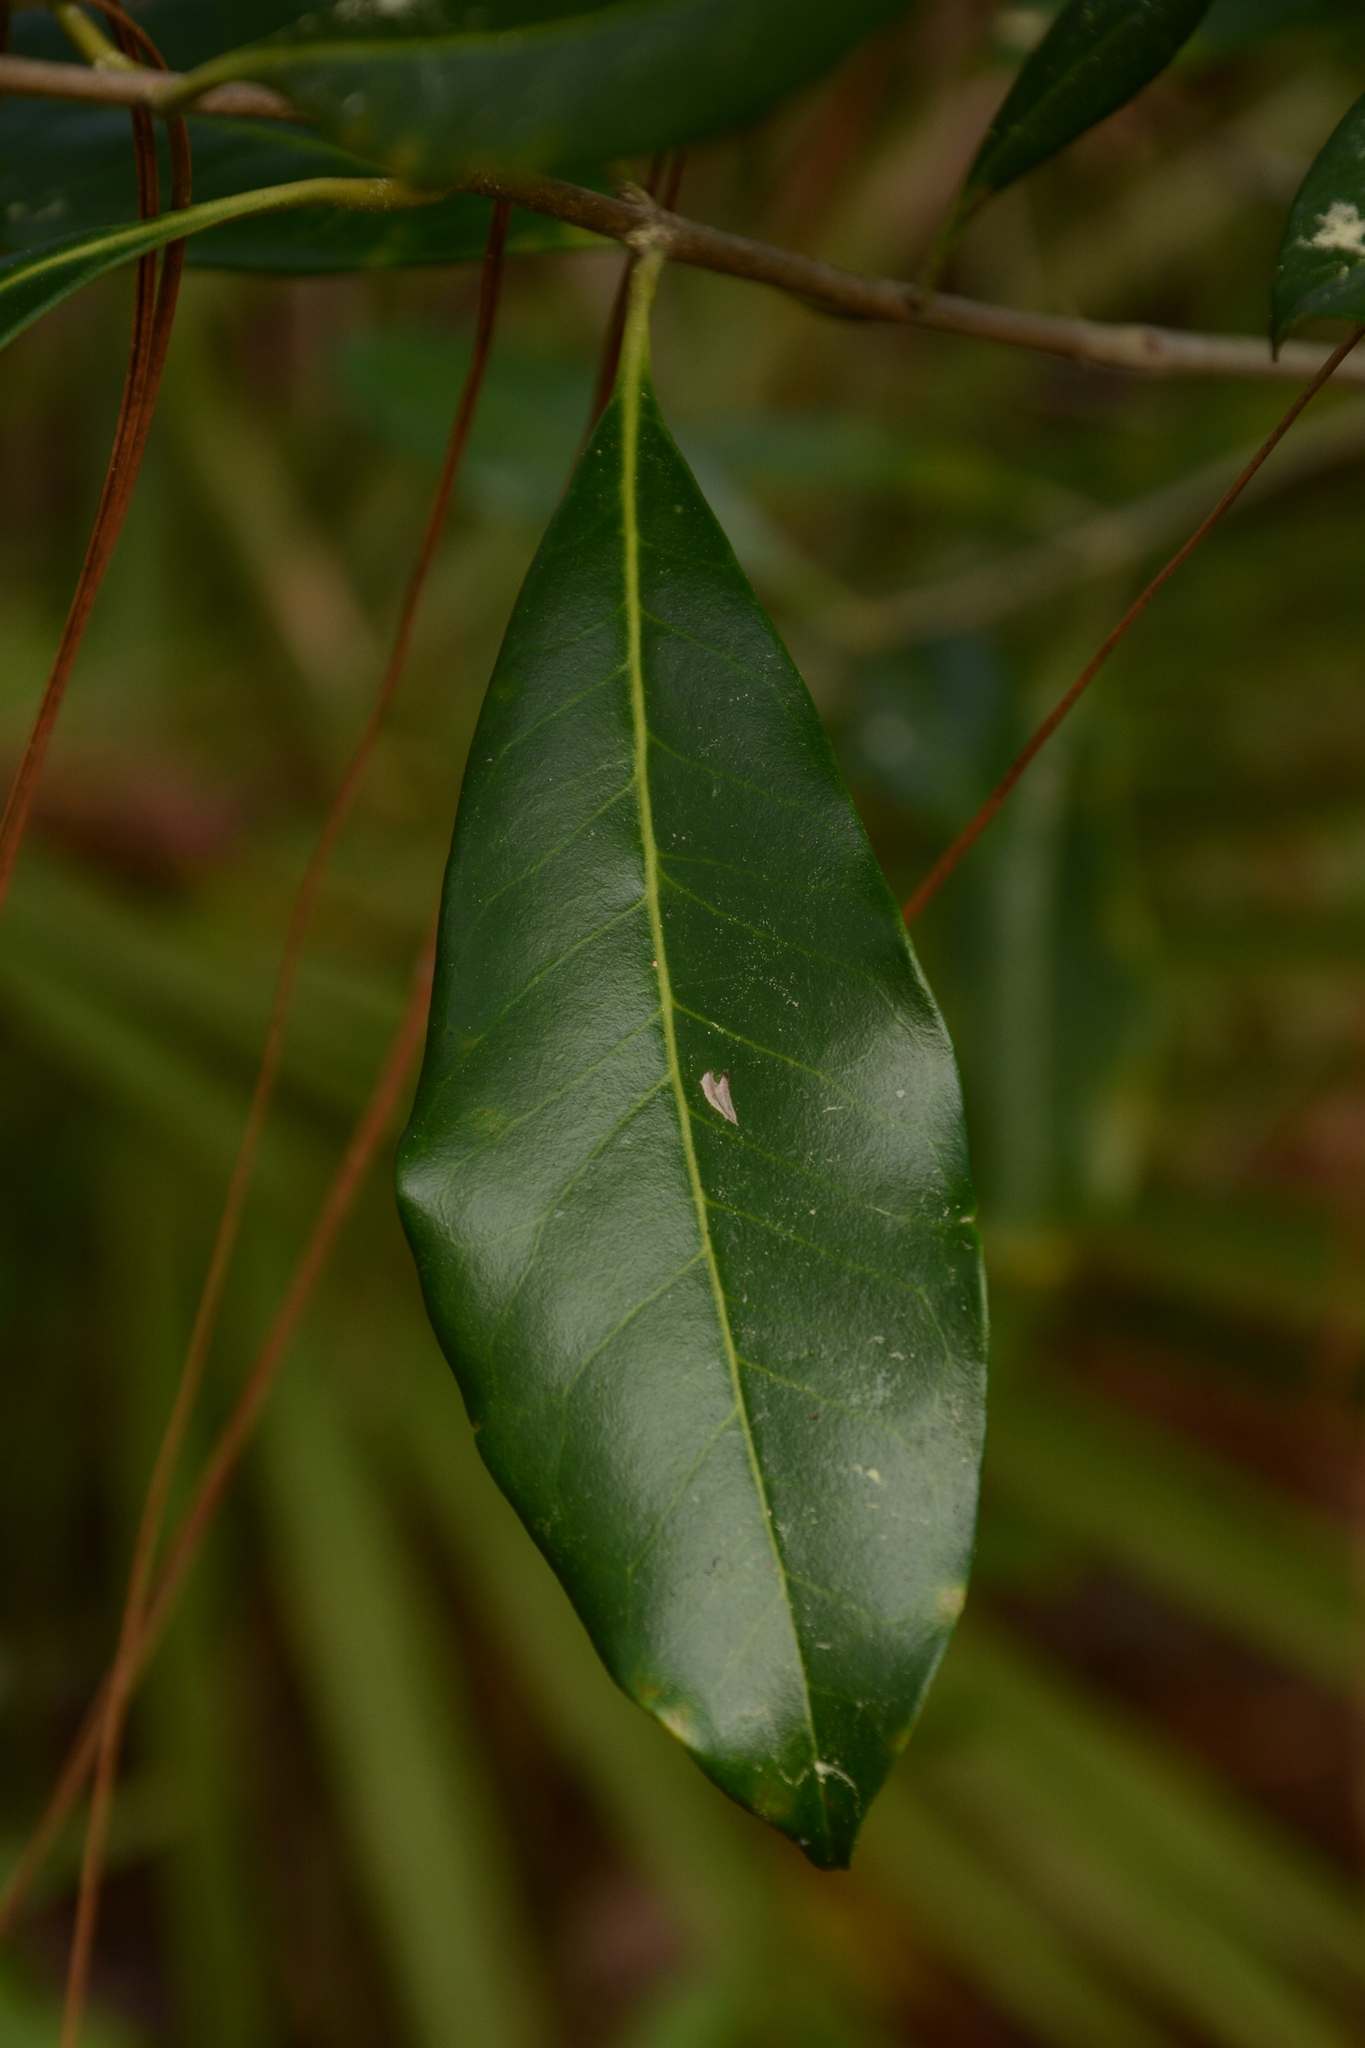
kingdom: Plantae
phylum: Tracheophyta
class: Magnoliopsida
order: Lamiales
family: Oleaceae
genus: Cartrema
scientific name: Cartrema americana
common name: Devilwood
